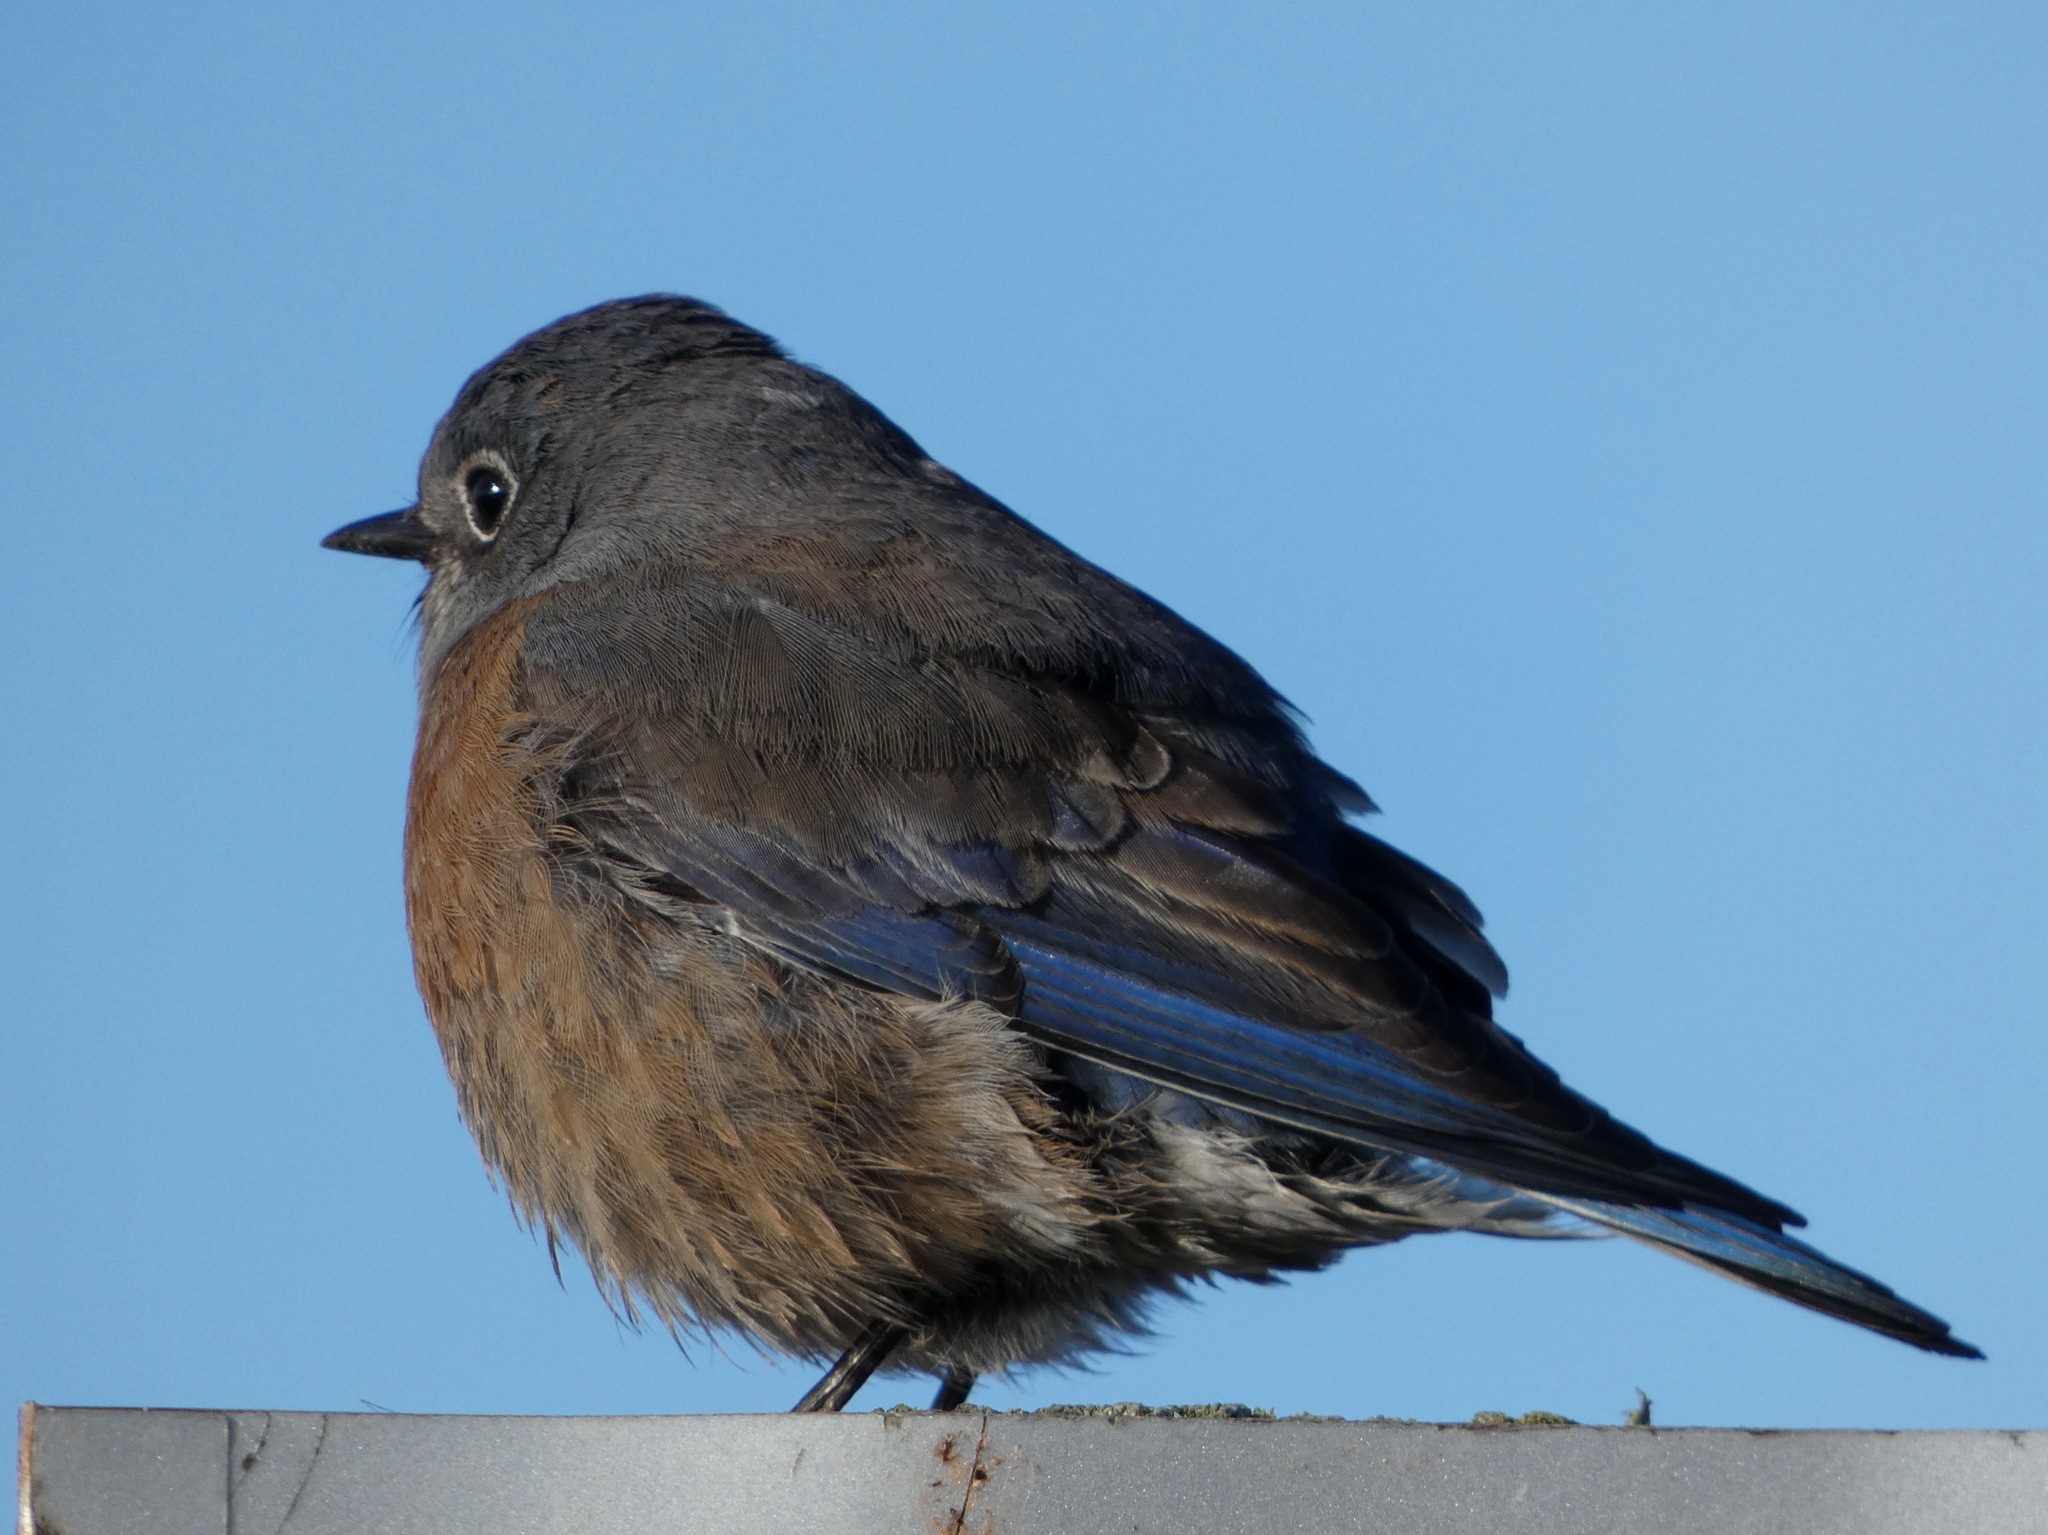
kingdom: Animalia
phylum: Chordata
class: Aves
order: Passeriformes
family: Turdidae
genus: Sialia
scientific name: Sialia mexicana
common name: Western bluebird
